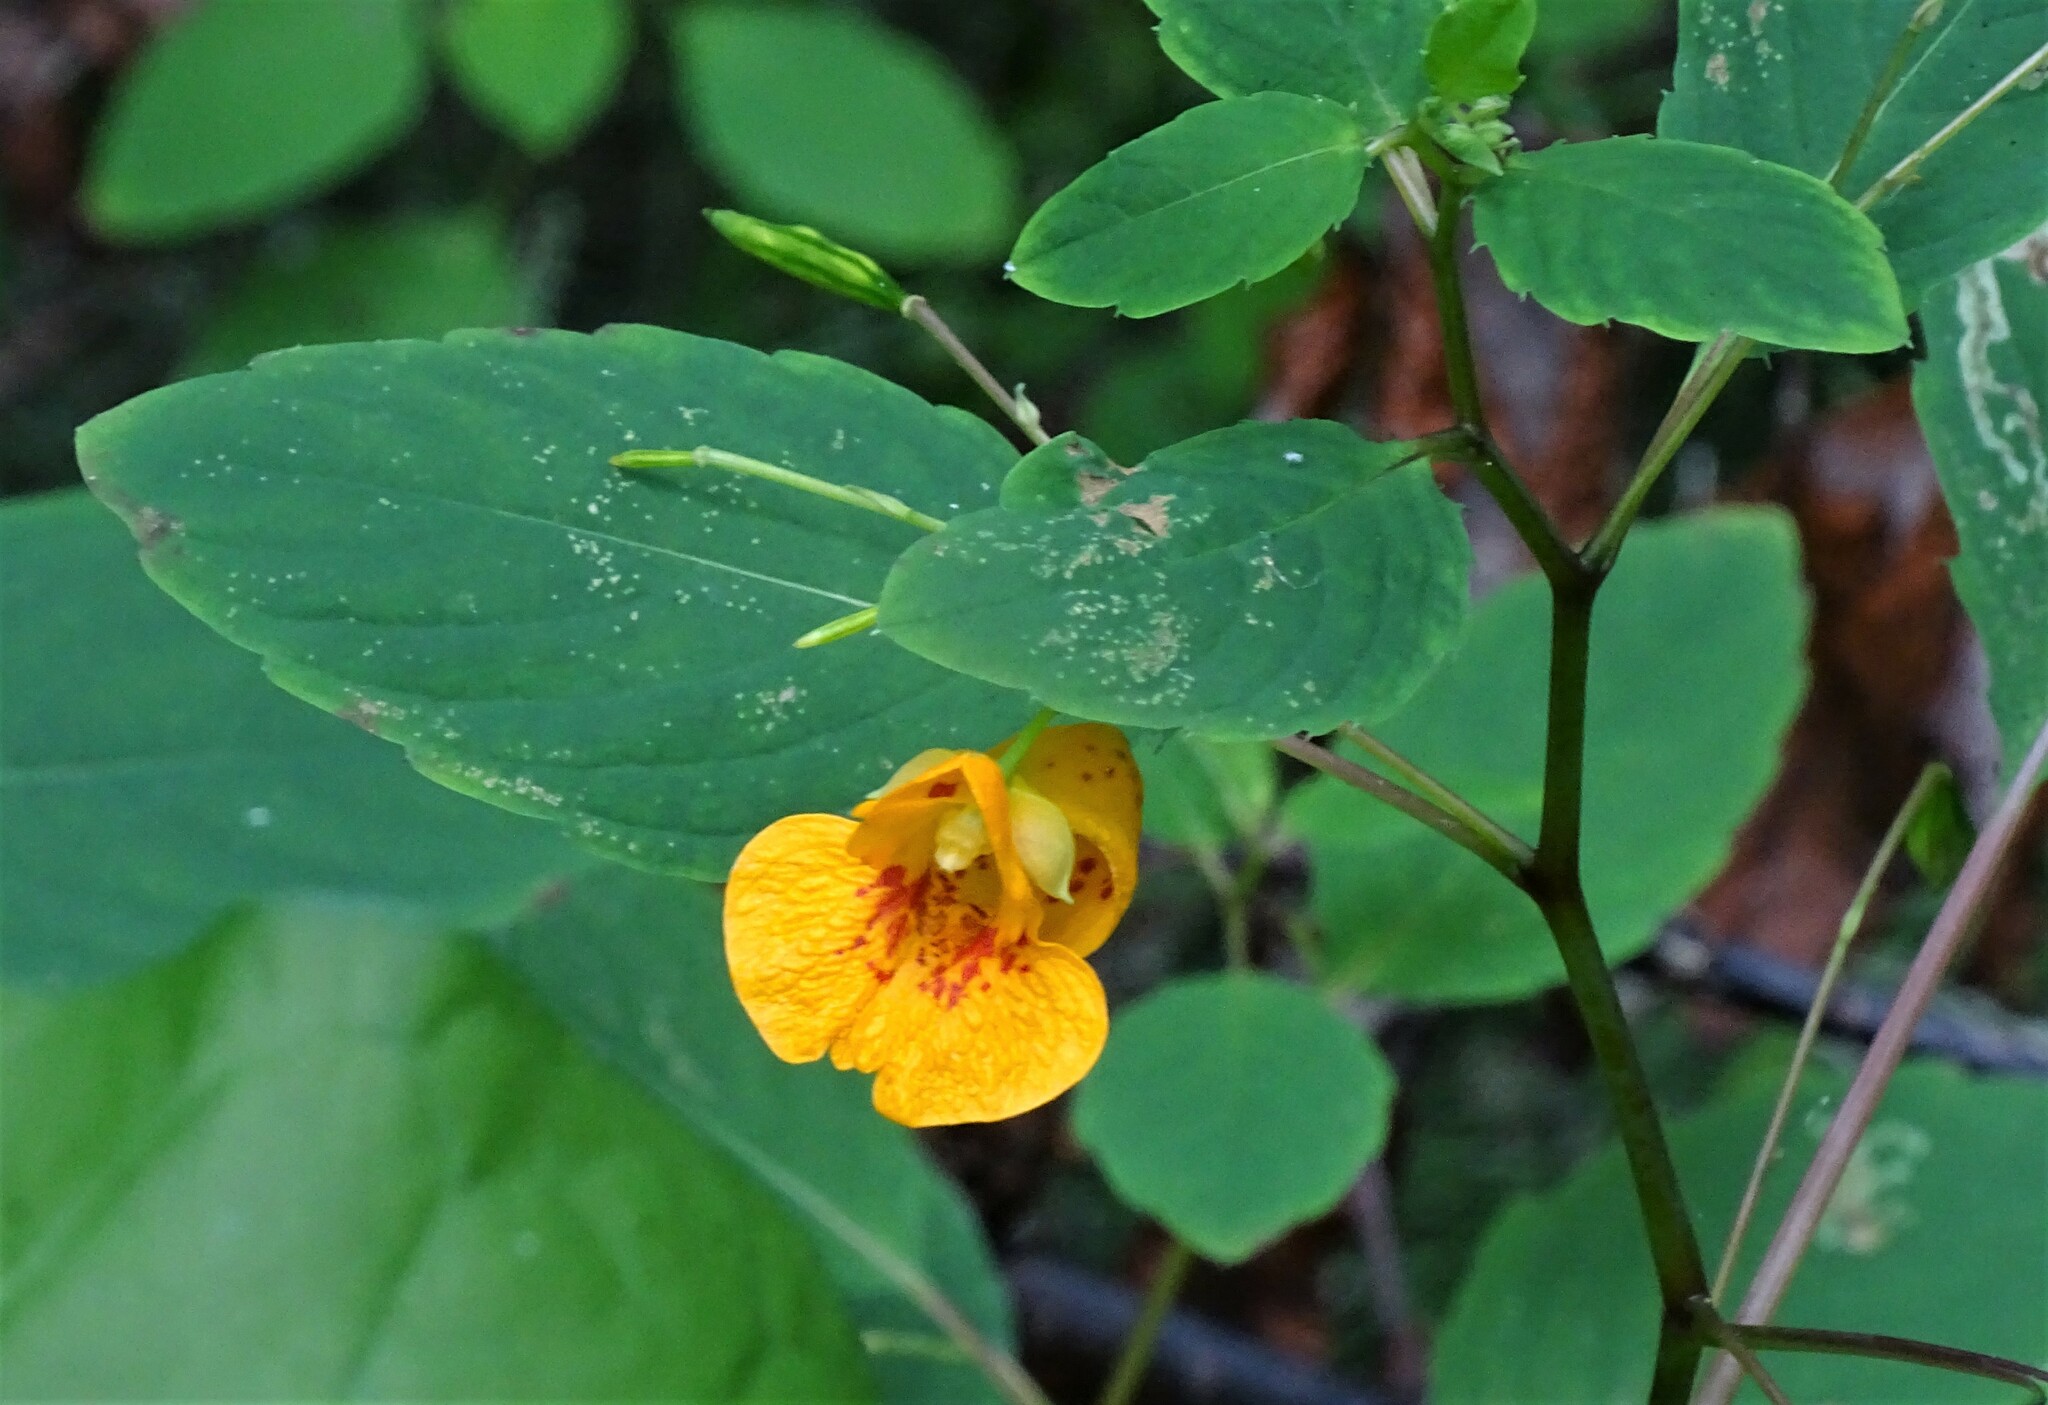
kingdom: Plantae
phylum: Tracheophyta
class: Magnoliopsida
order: Ericales
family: Balsaminaceae
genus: Impatiens
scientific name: Impatiens capensis
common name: Orange balsam
